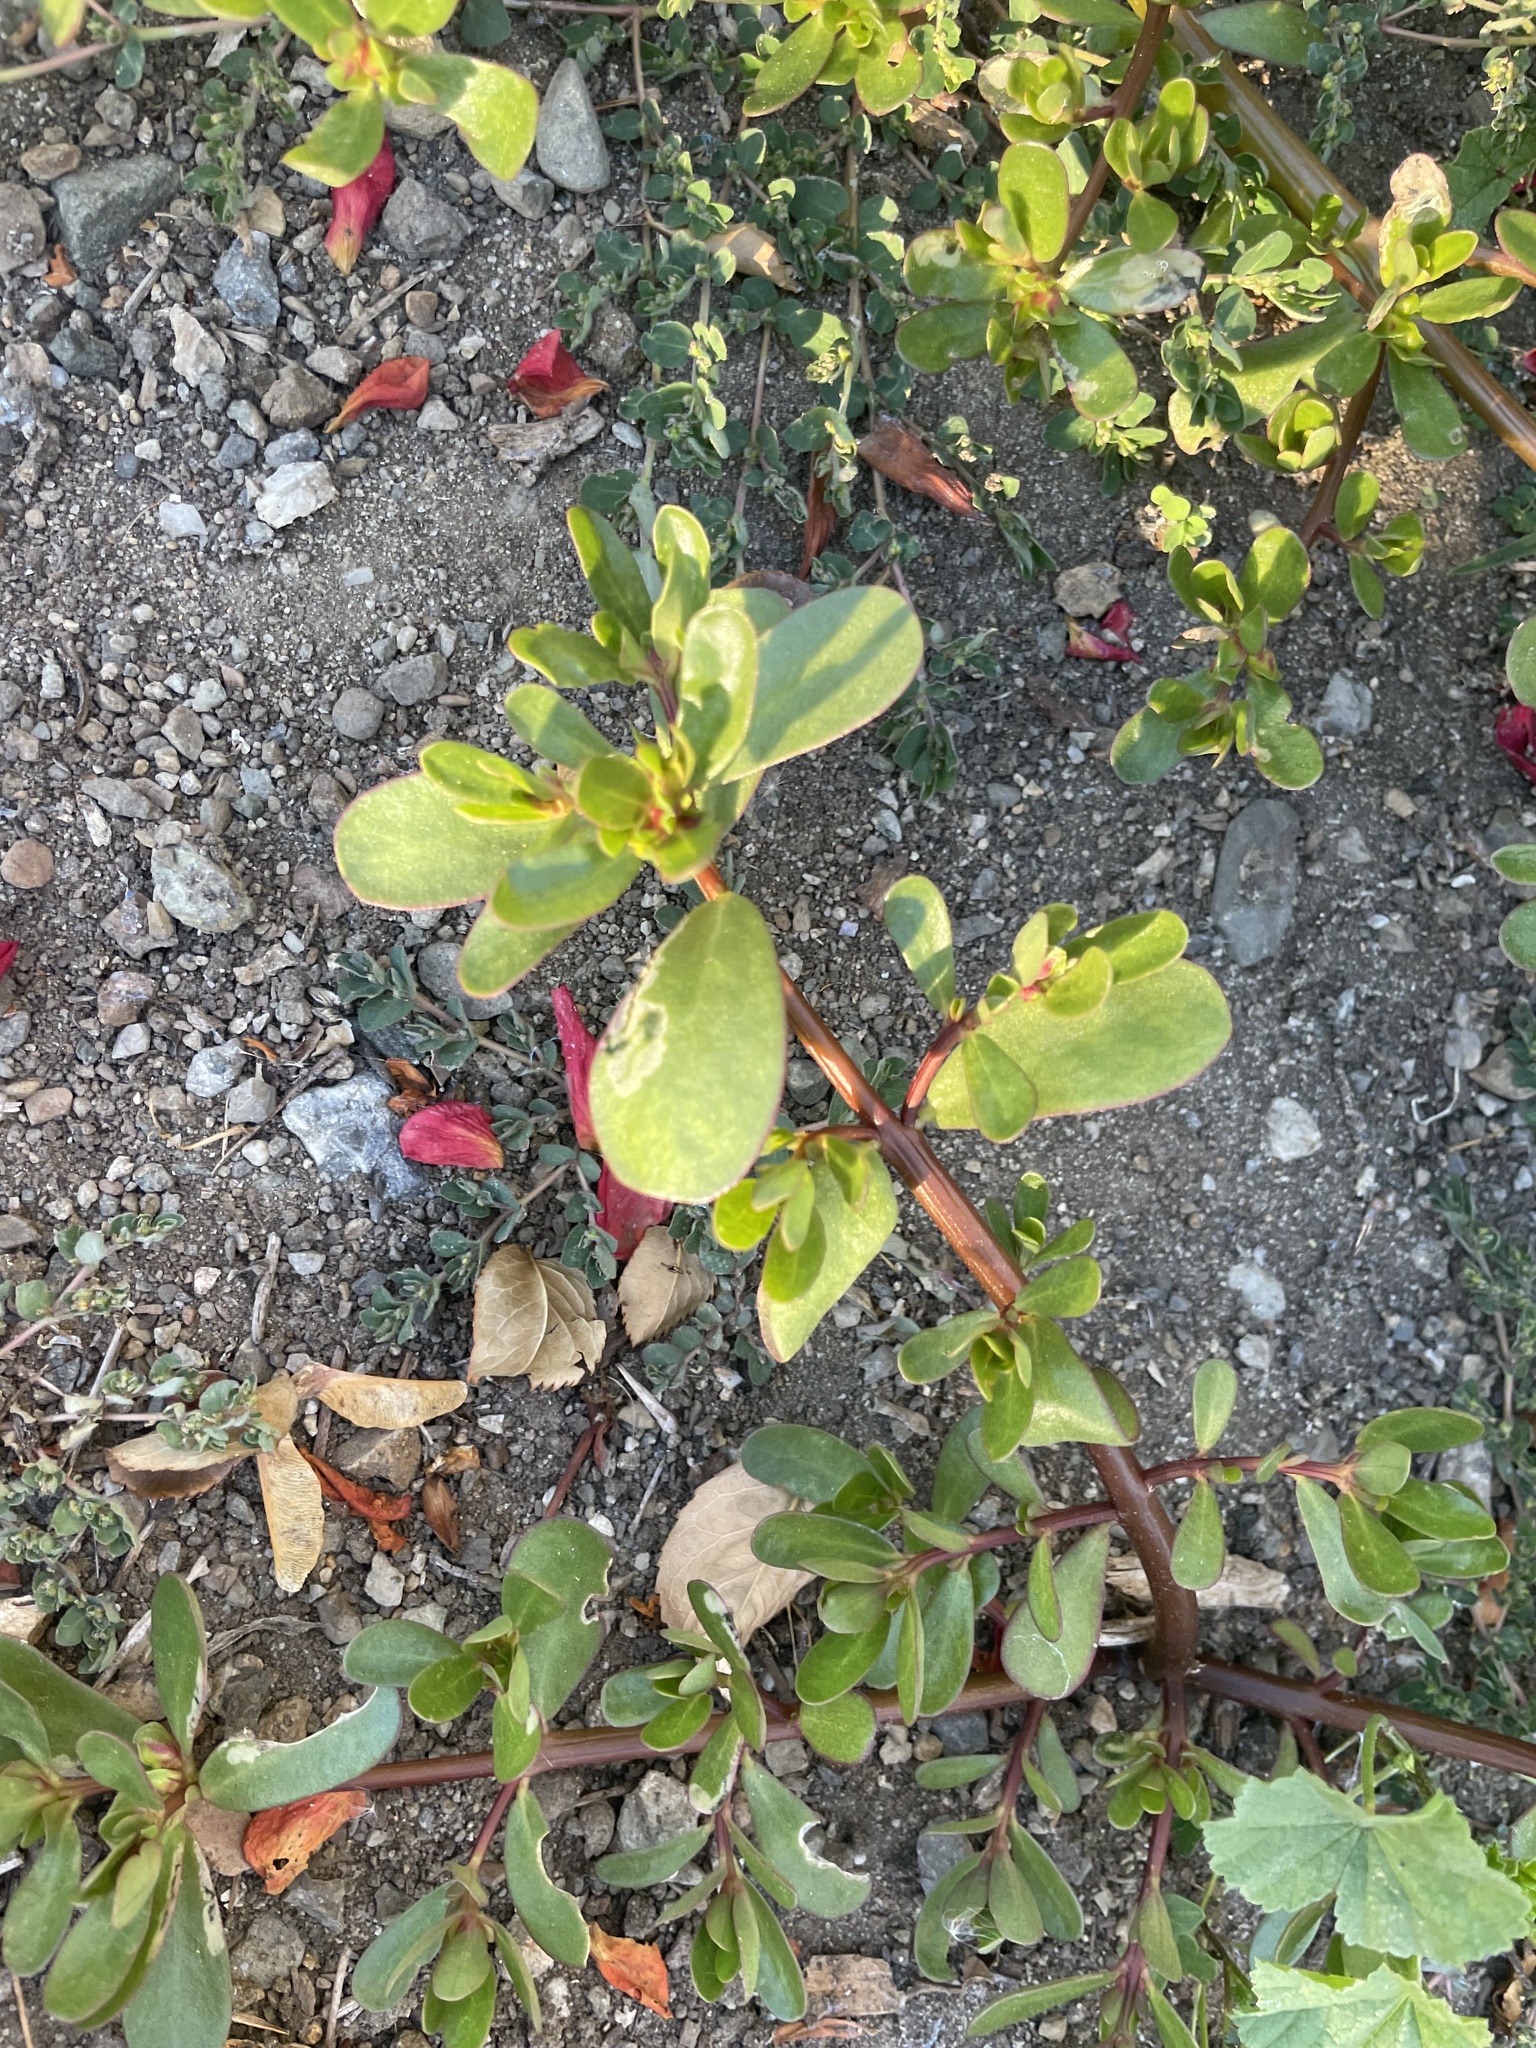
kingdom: Plantae
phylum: Tracheophyta
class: Magnoliopsida
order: Caryophyllales
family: Portulacaceae
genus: Portulaca
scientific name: Portulaca oleracea
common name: Common purslane
